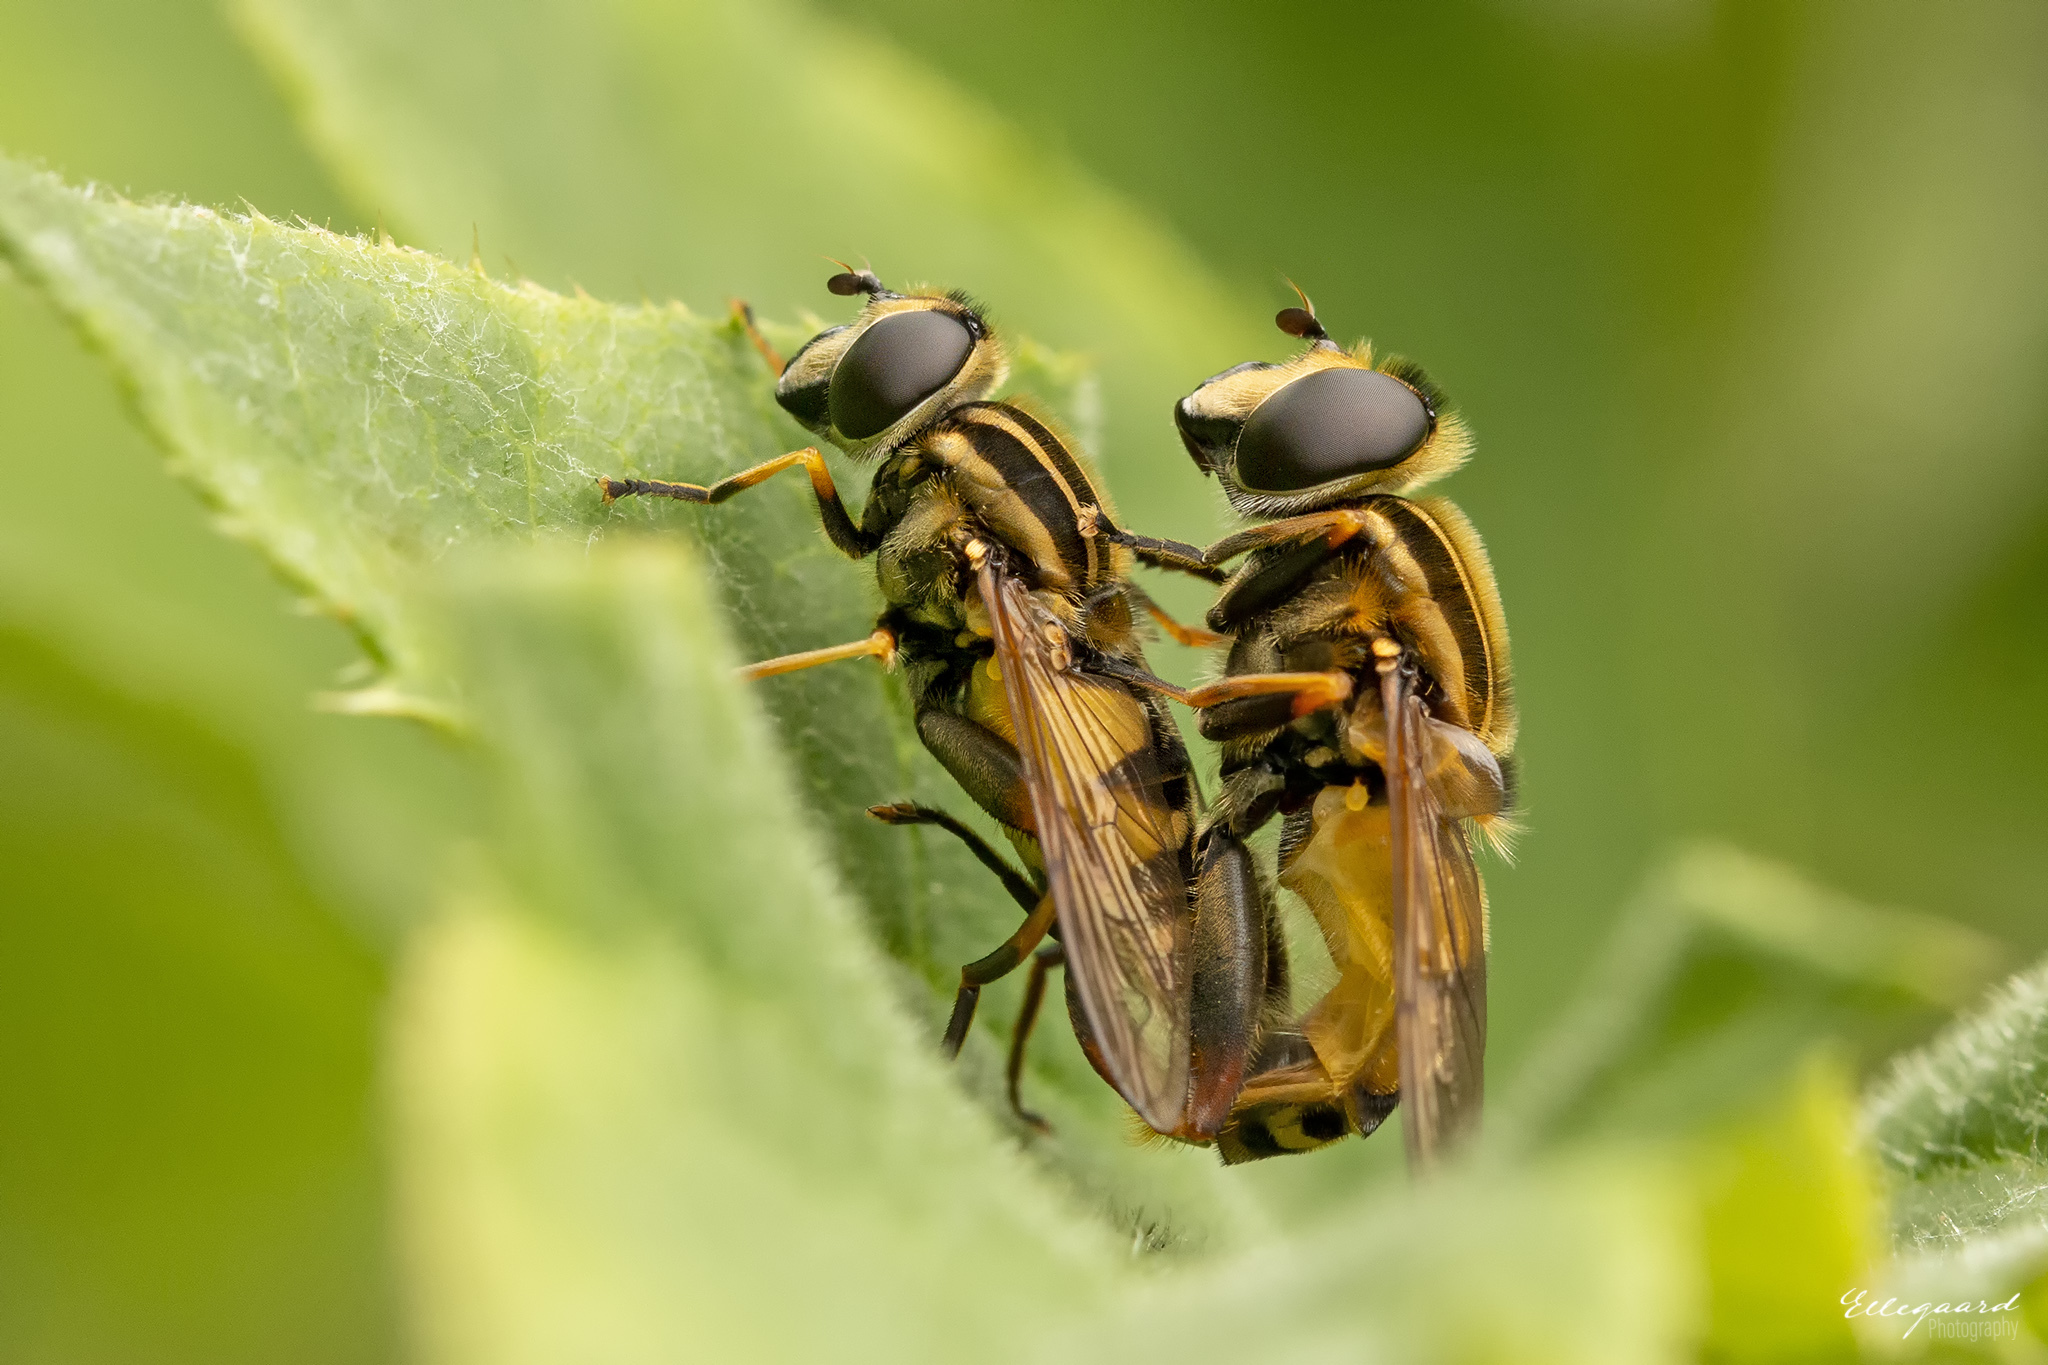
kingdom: Animalia
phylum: Arthropoda
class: Insecta
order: Diptera
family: Syrphidae
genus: Helophilus
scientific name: Helophilus pendulus
